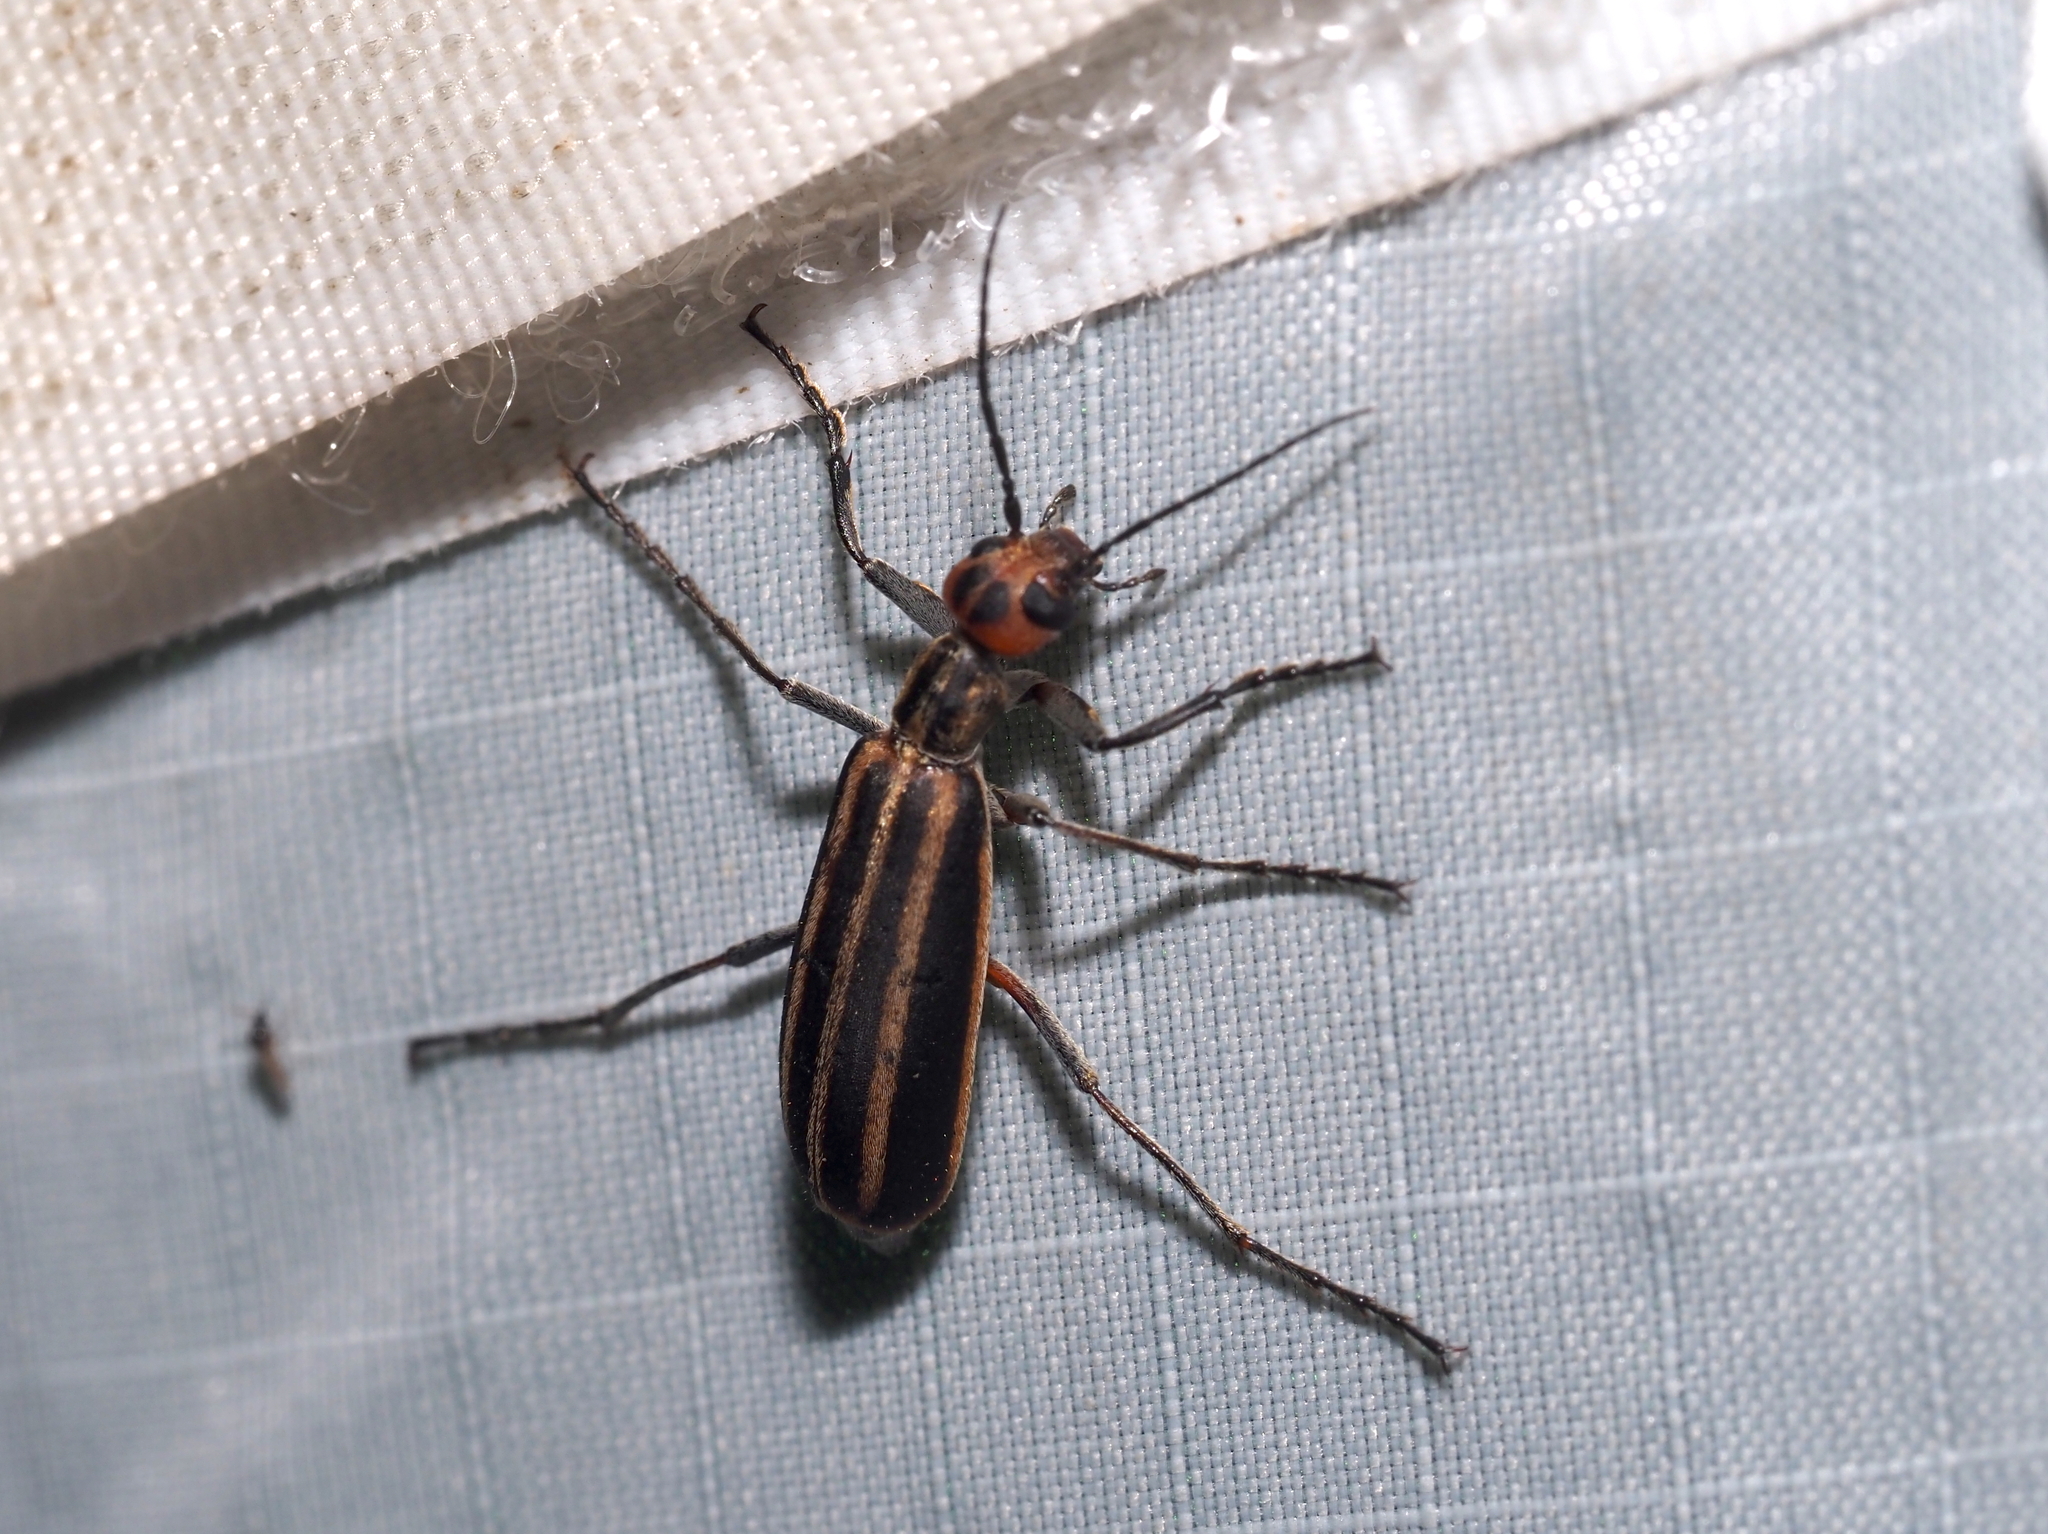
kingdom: Animalia
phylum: Arthropoda
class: Insecta
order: Coleoptera
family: Meloidae
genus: Epicauta
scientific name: Epicauta vittata
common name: Old-fashioned potato beetle
